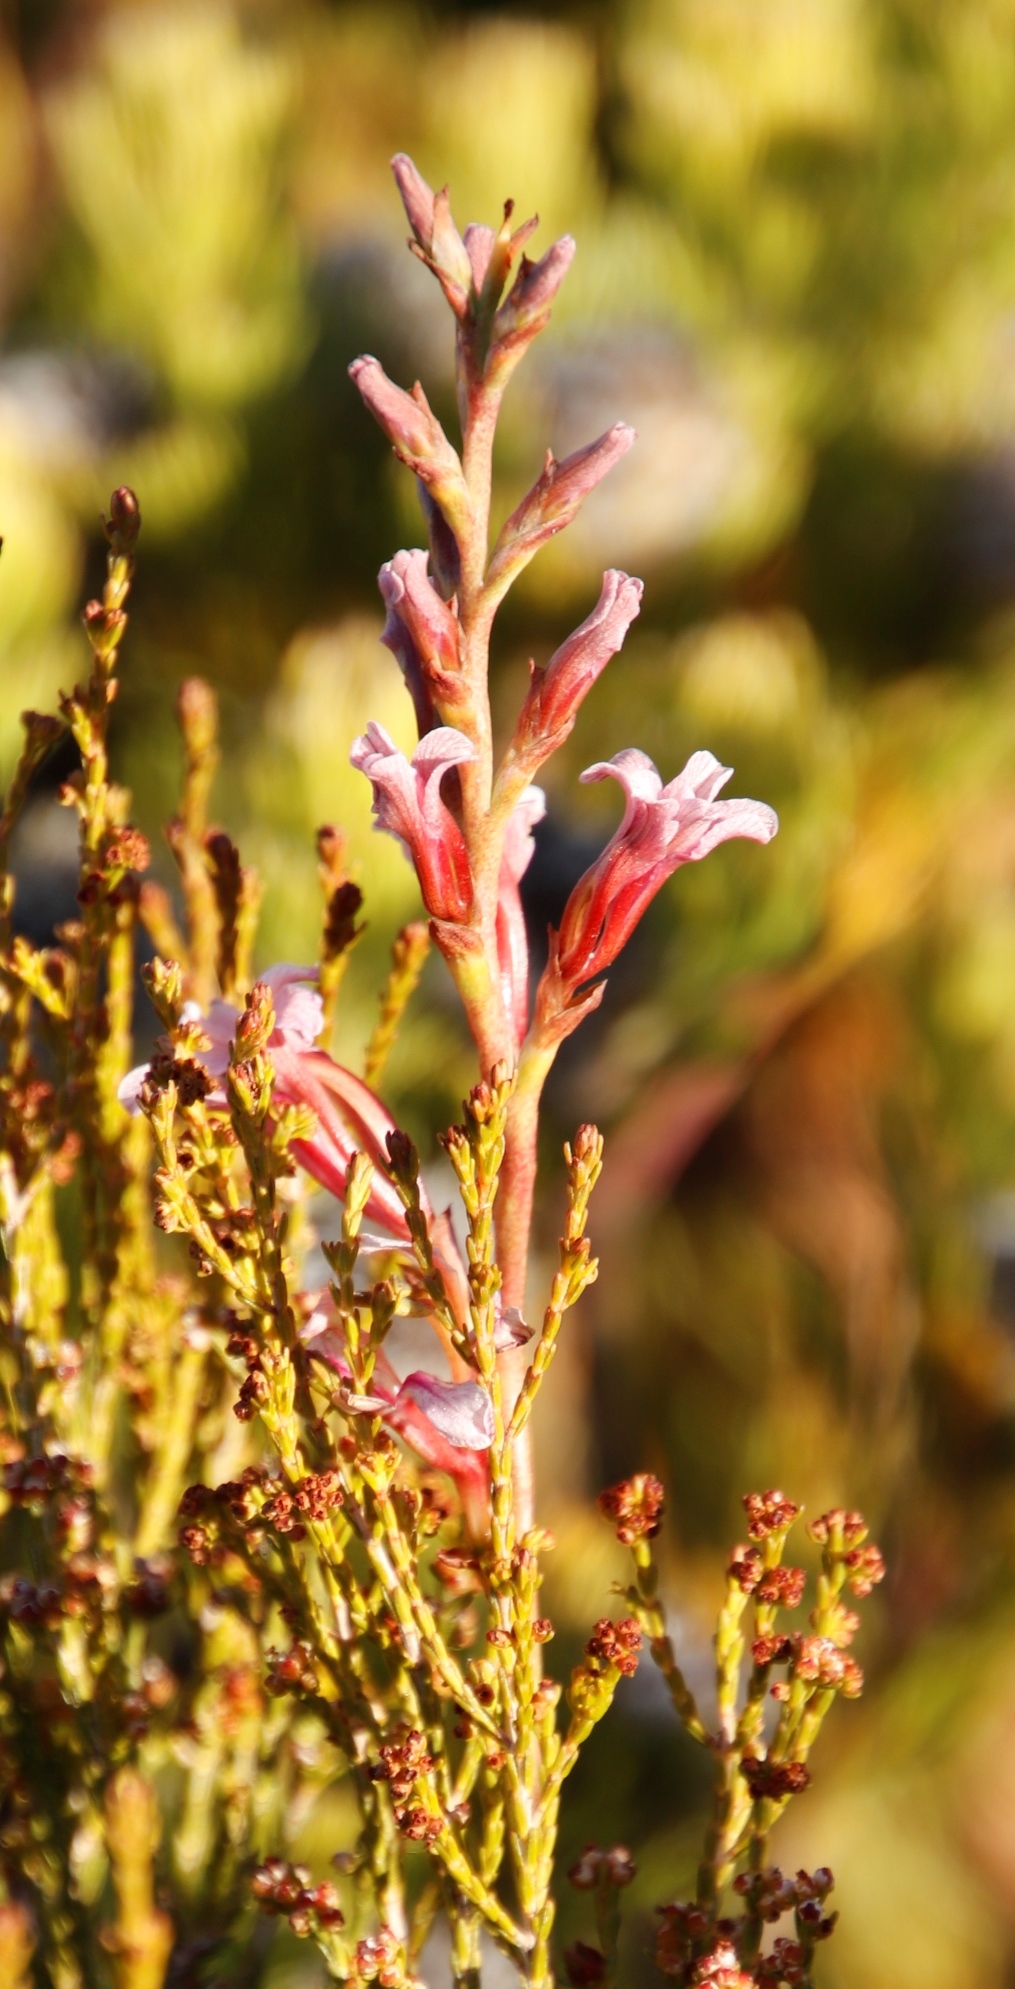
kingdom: Plantae
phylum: Tracheophyta
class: Liliopsida
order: Asparagales
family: Iridaceae
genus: Tritoniopsis
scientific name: Tritoniopsis dodii
